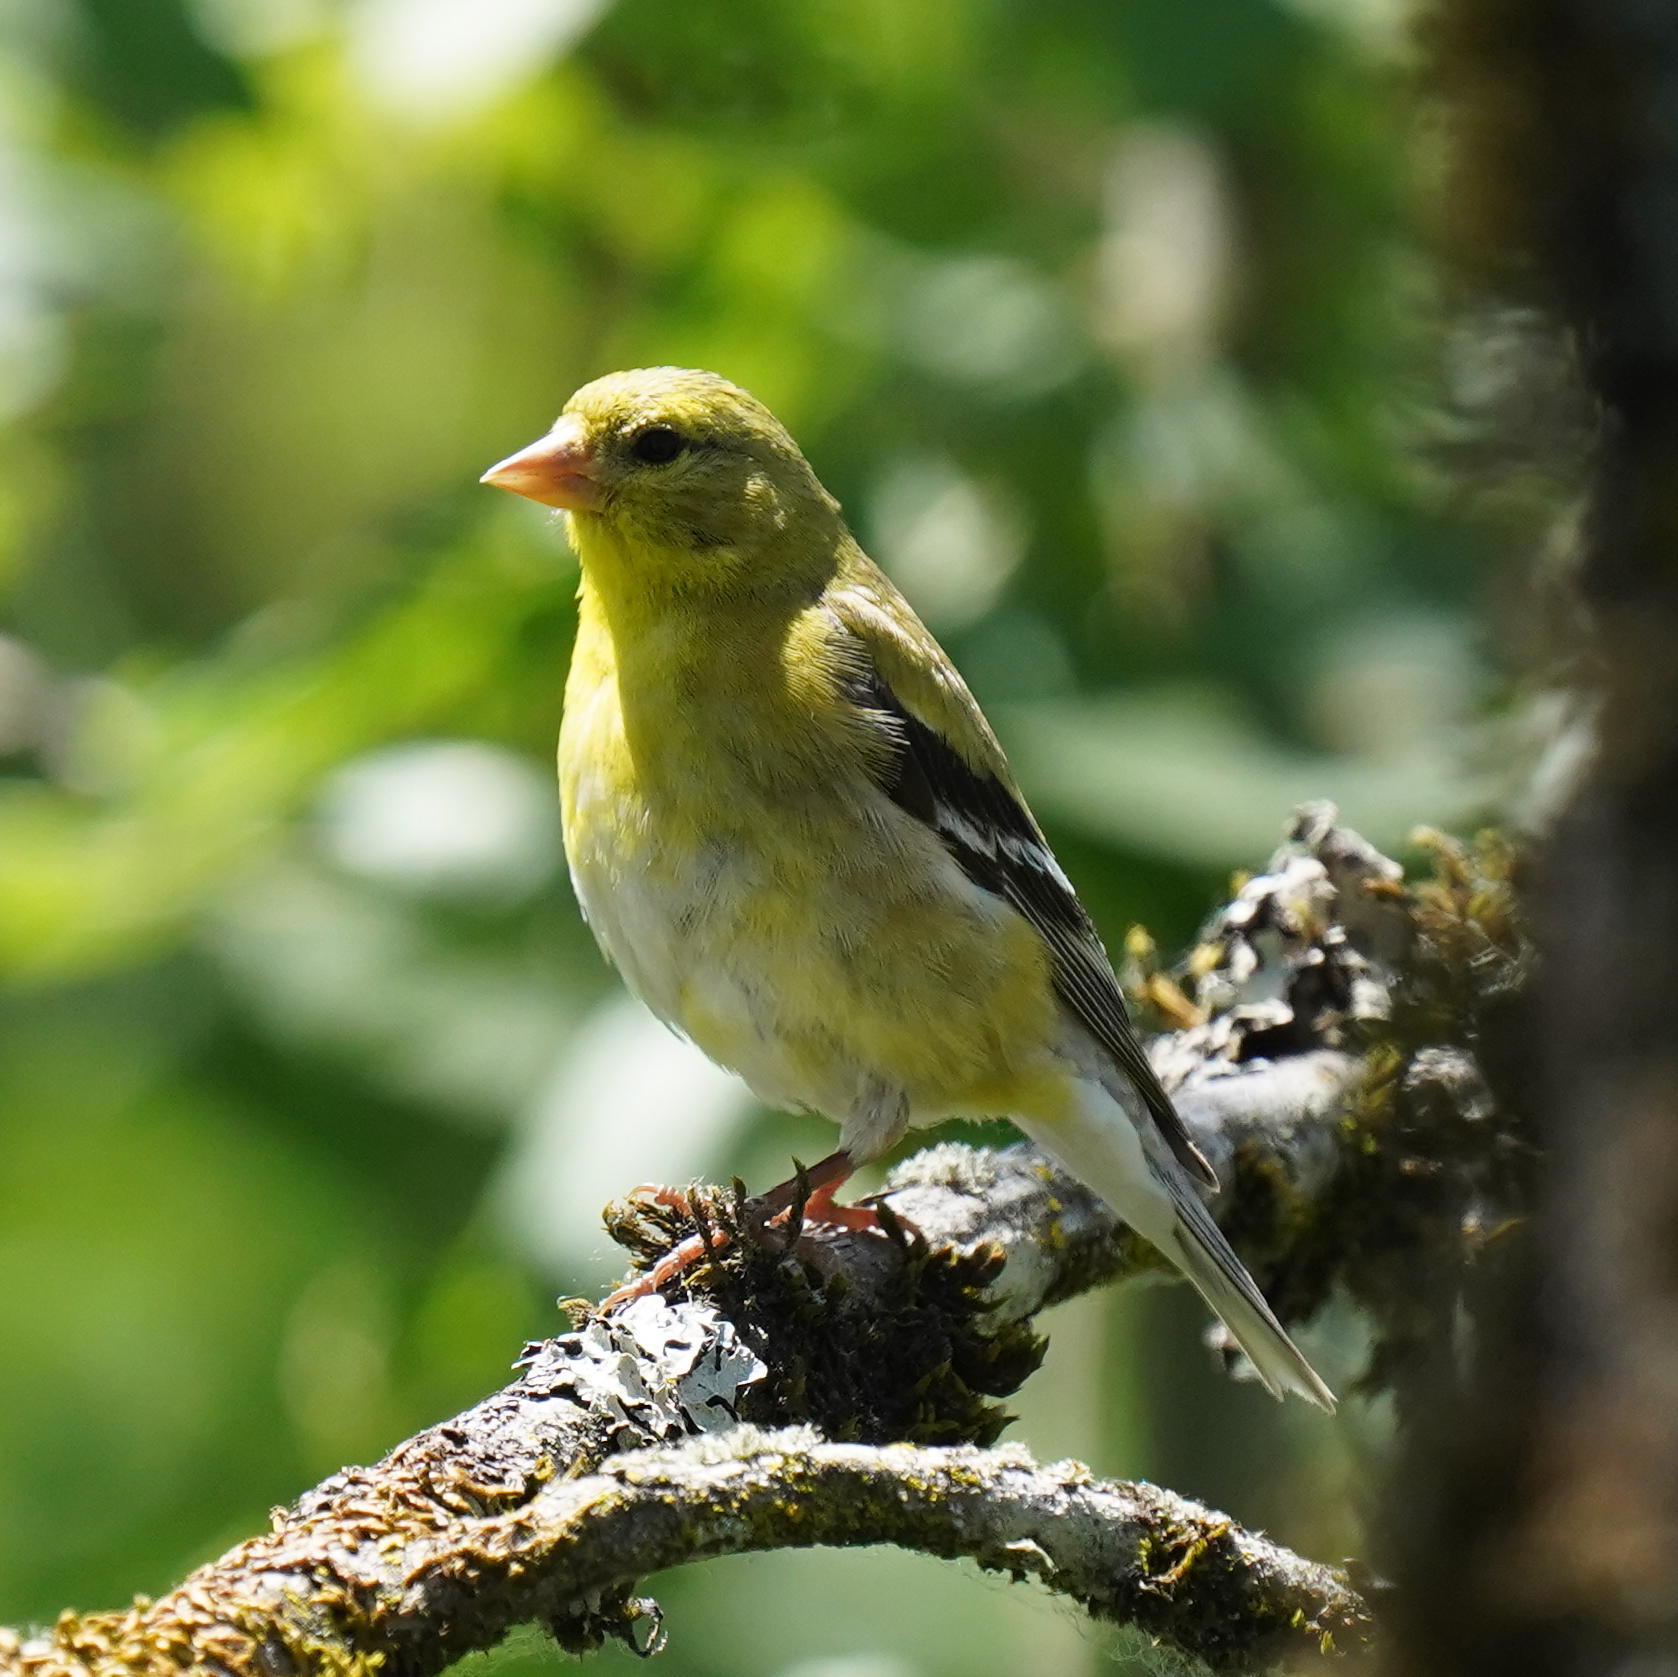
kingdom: Animalia
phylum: Chordata
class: Aves
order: Passeriformes
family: Fringillidae
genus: Spinus
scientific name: Spinus tristis
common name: American goldfinch
